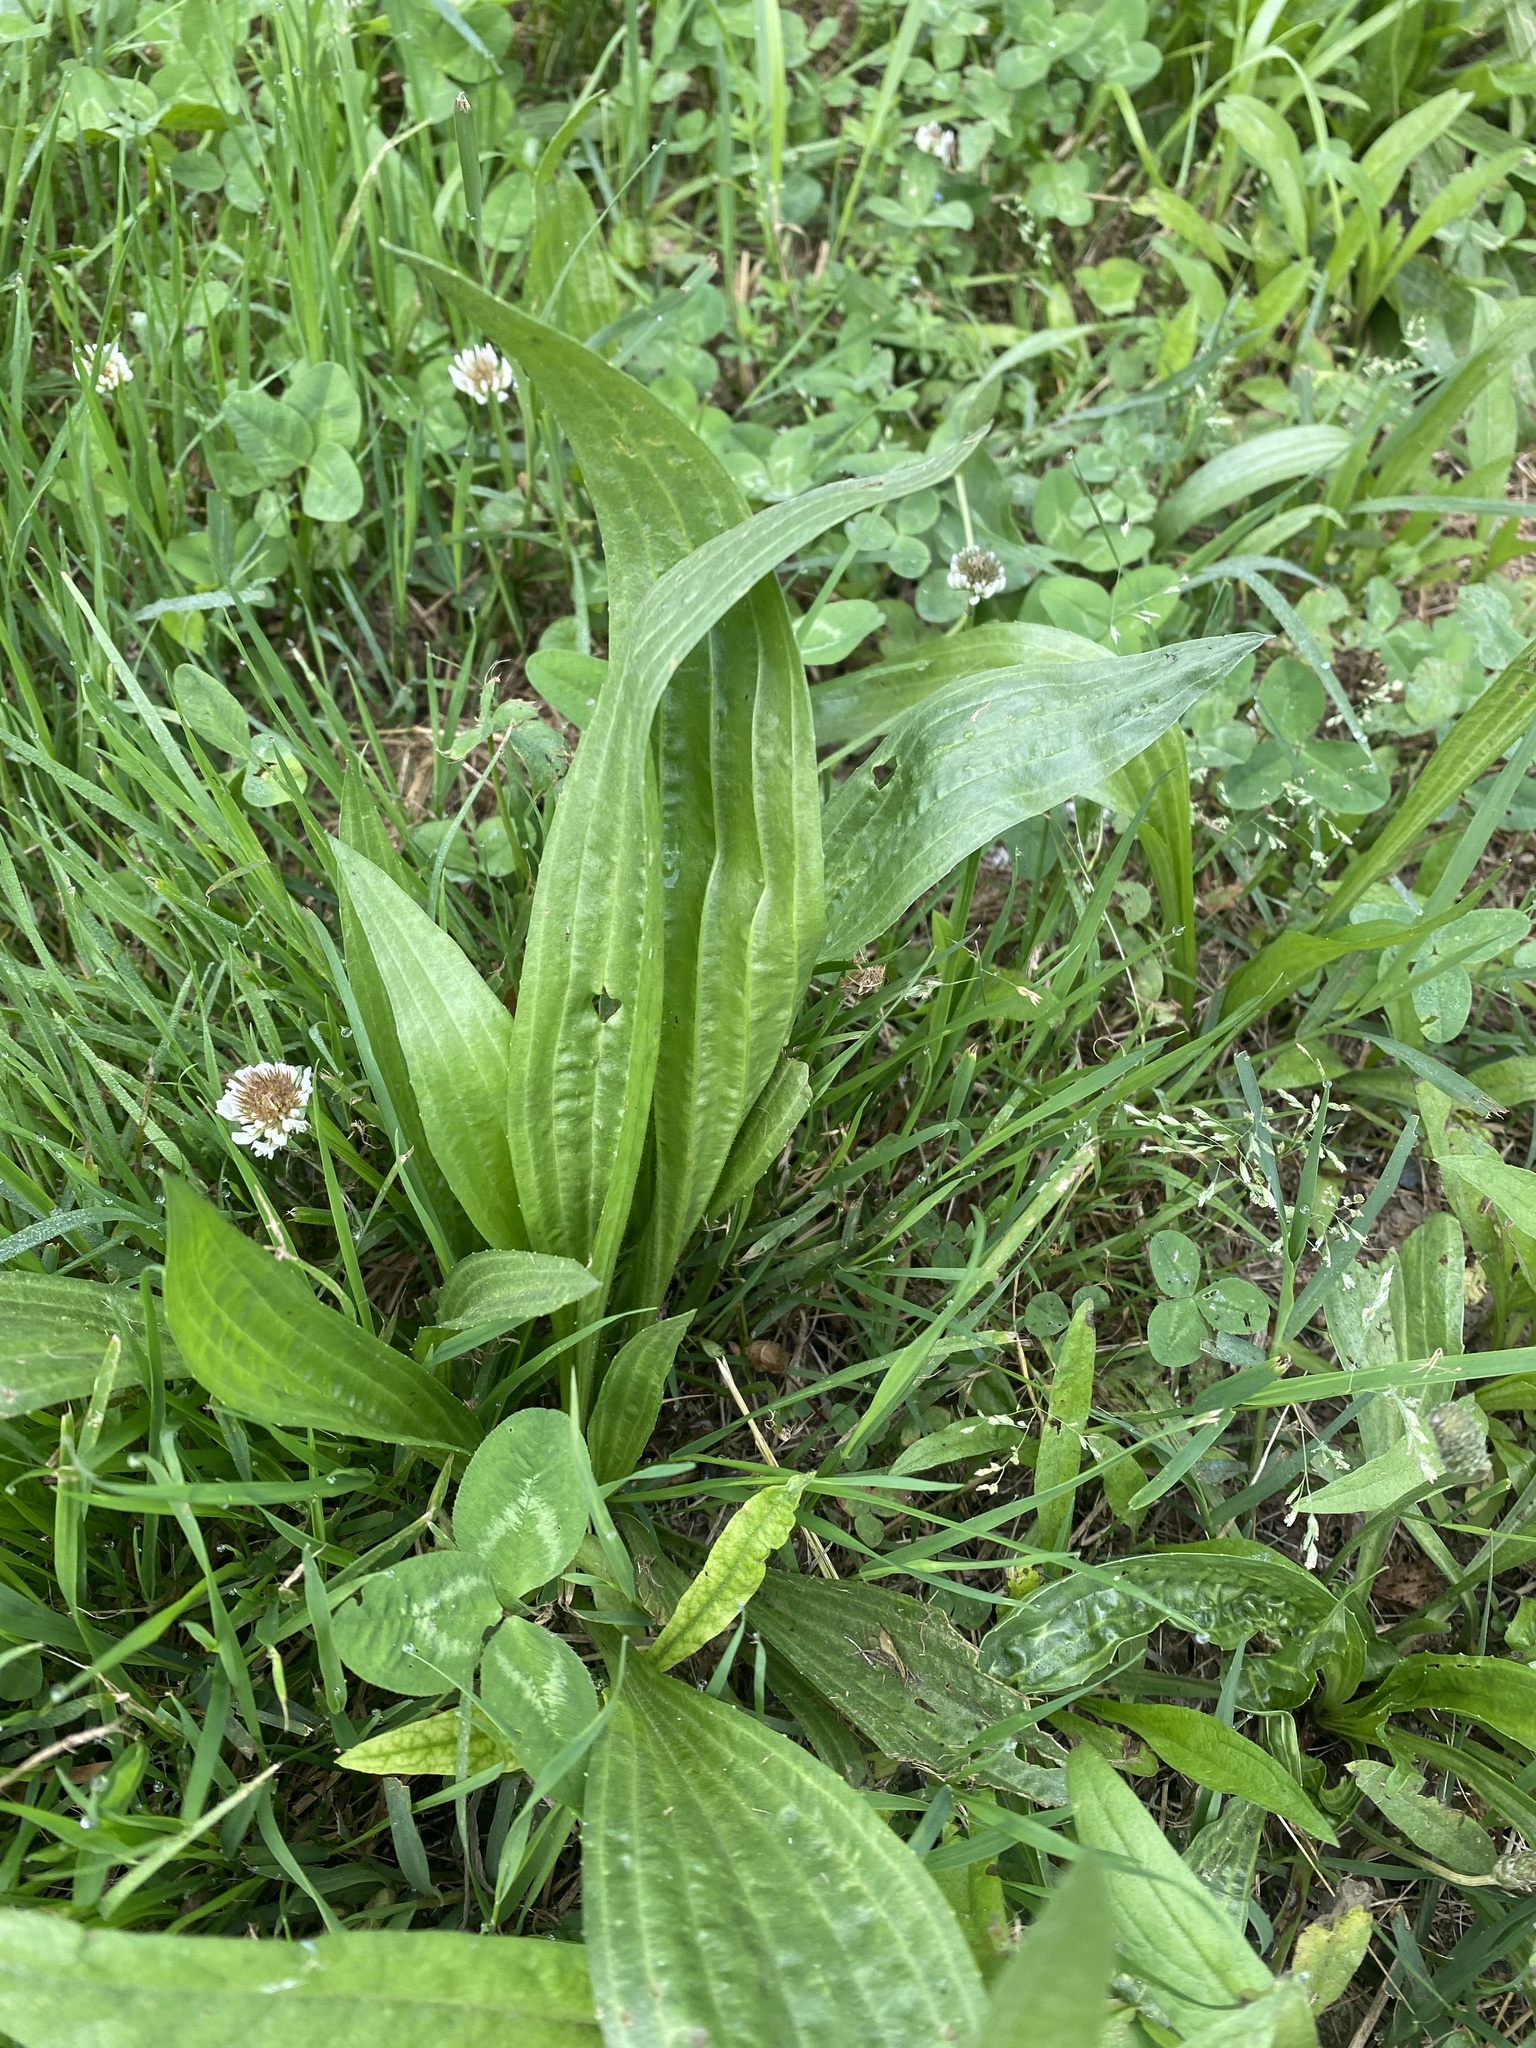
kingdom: Plantae
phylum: Tracheophyta
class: Magnoliopsida
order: Lamiales
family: Plantaginaceae
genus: Plantago
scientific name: Plantago lanceolata
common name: Ribwort plantain
